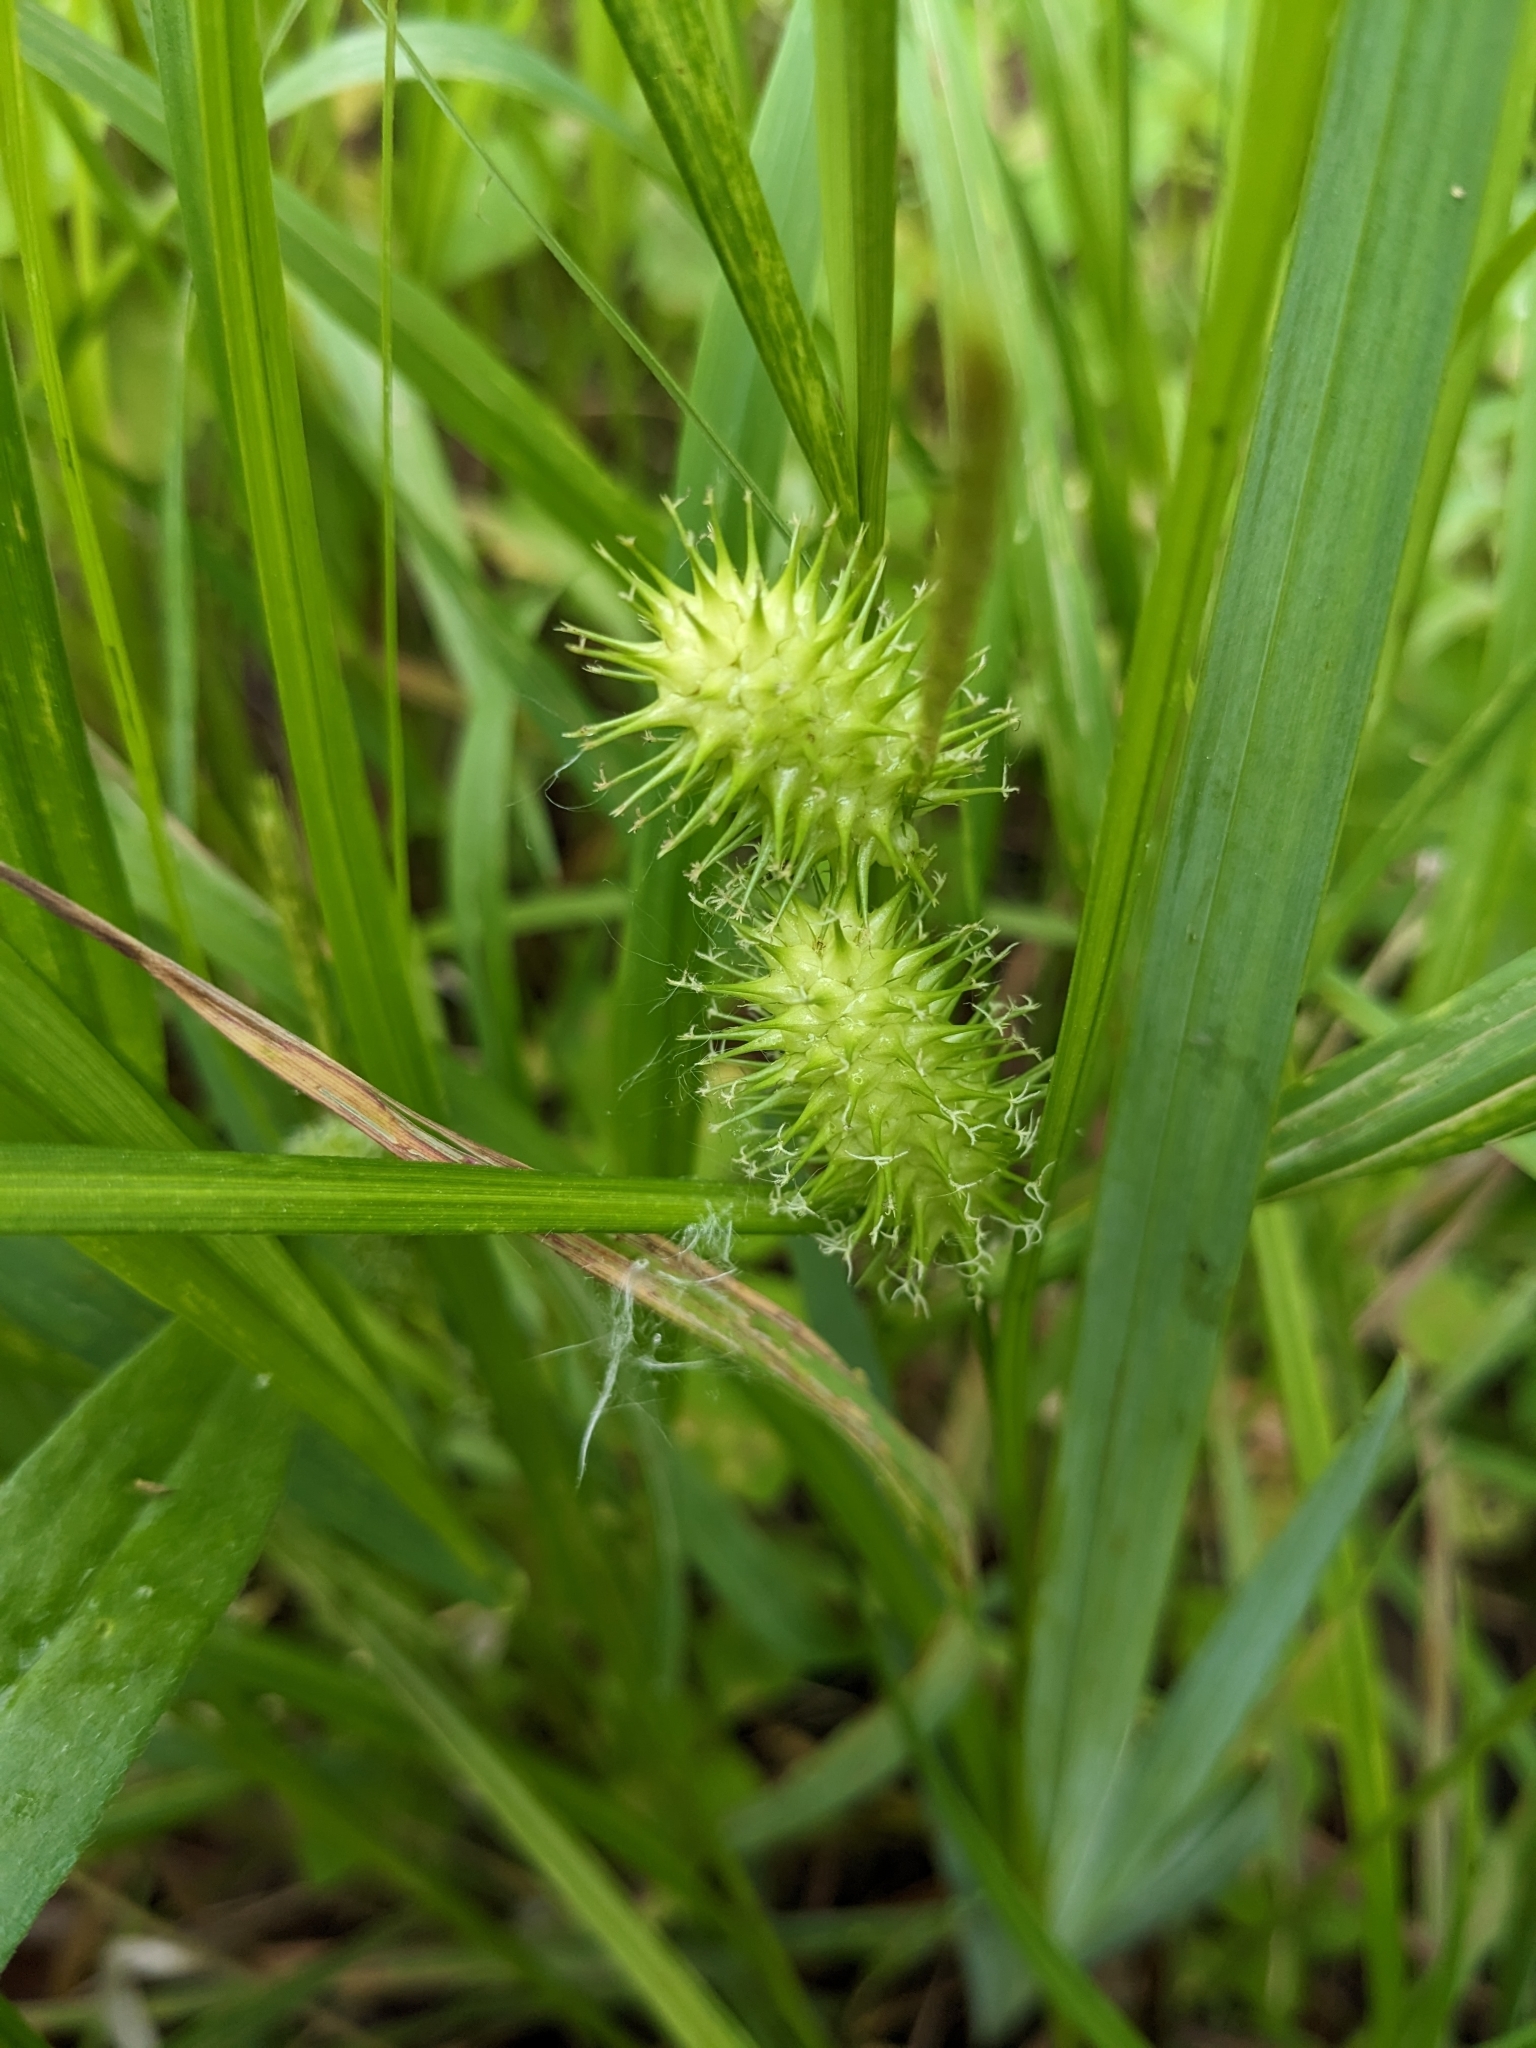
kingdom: Plantae
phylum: Tracheophyta
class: Liliopsida
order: Poales
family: Cyperaceae
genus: Carex
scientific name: Carex lurida
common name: Sallow sedge
